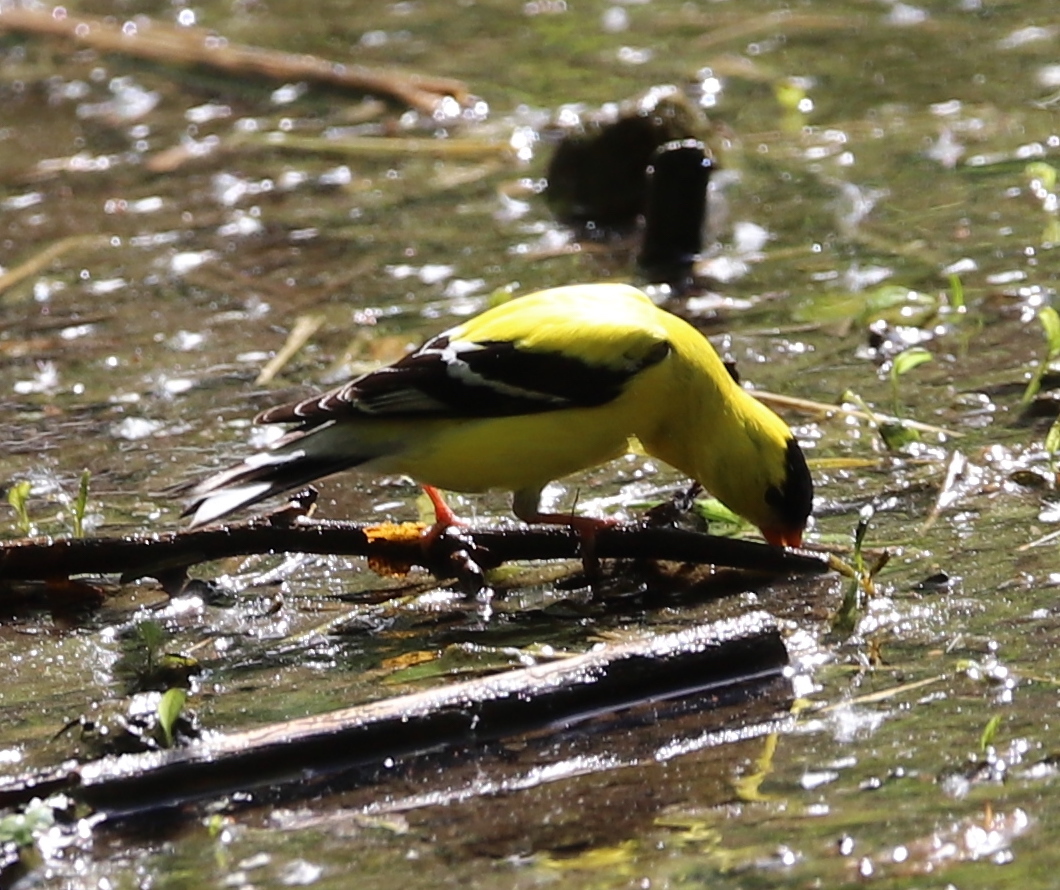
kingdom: Animalia
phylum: Chordata
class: Aves
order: Passeriformes
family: Fringillidae
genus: Spinus
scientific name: Spinus tristis
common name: American goldfinch
